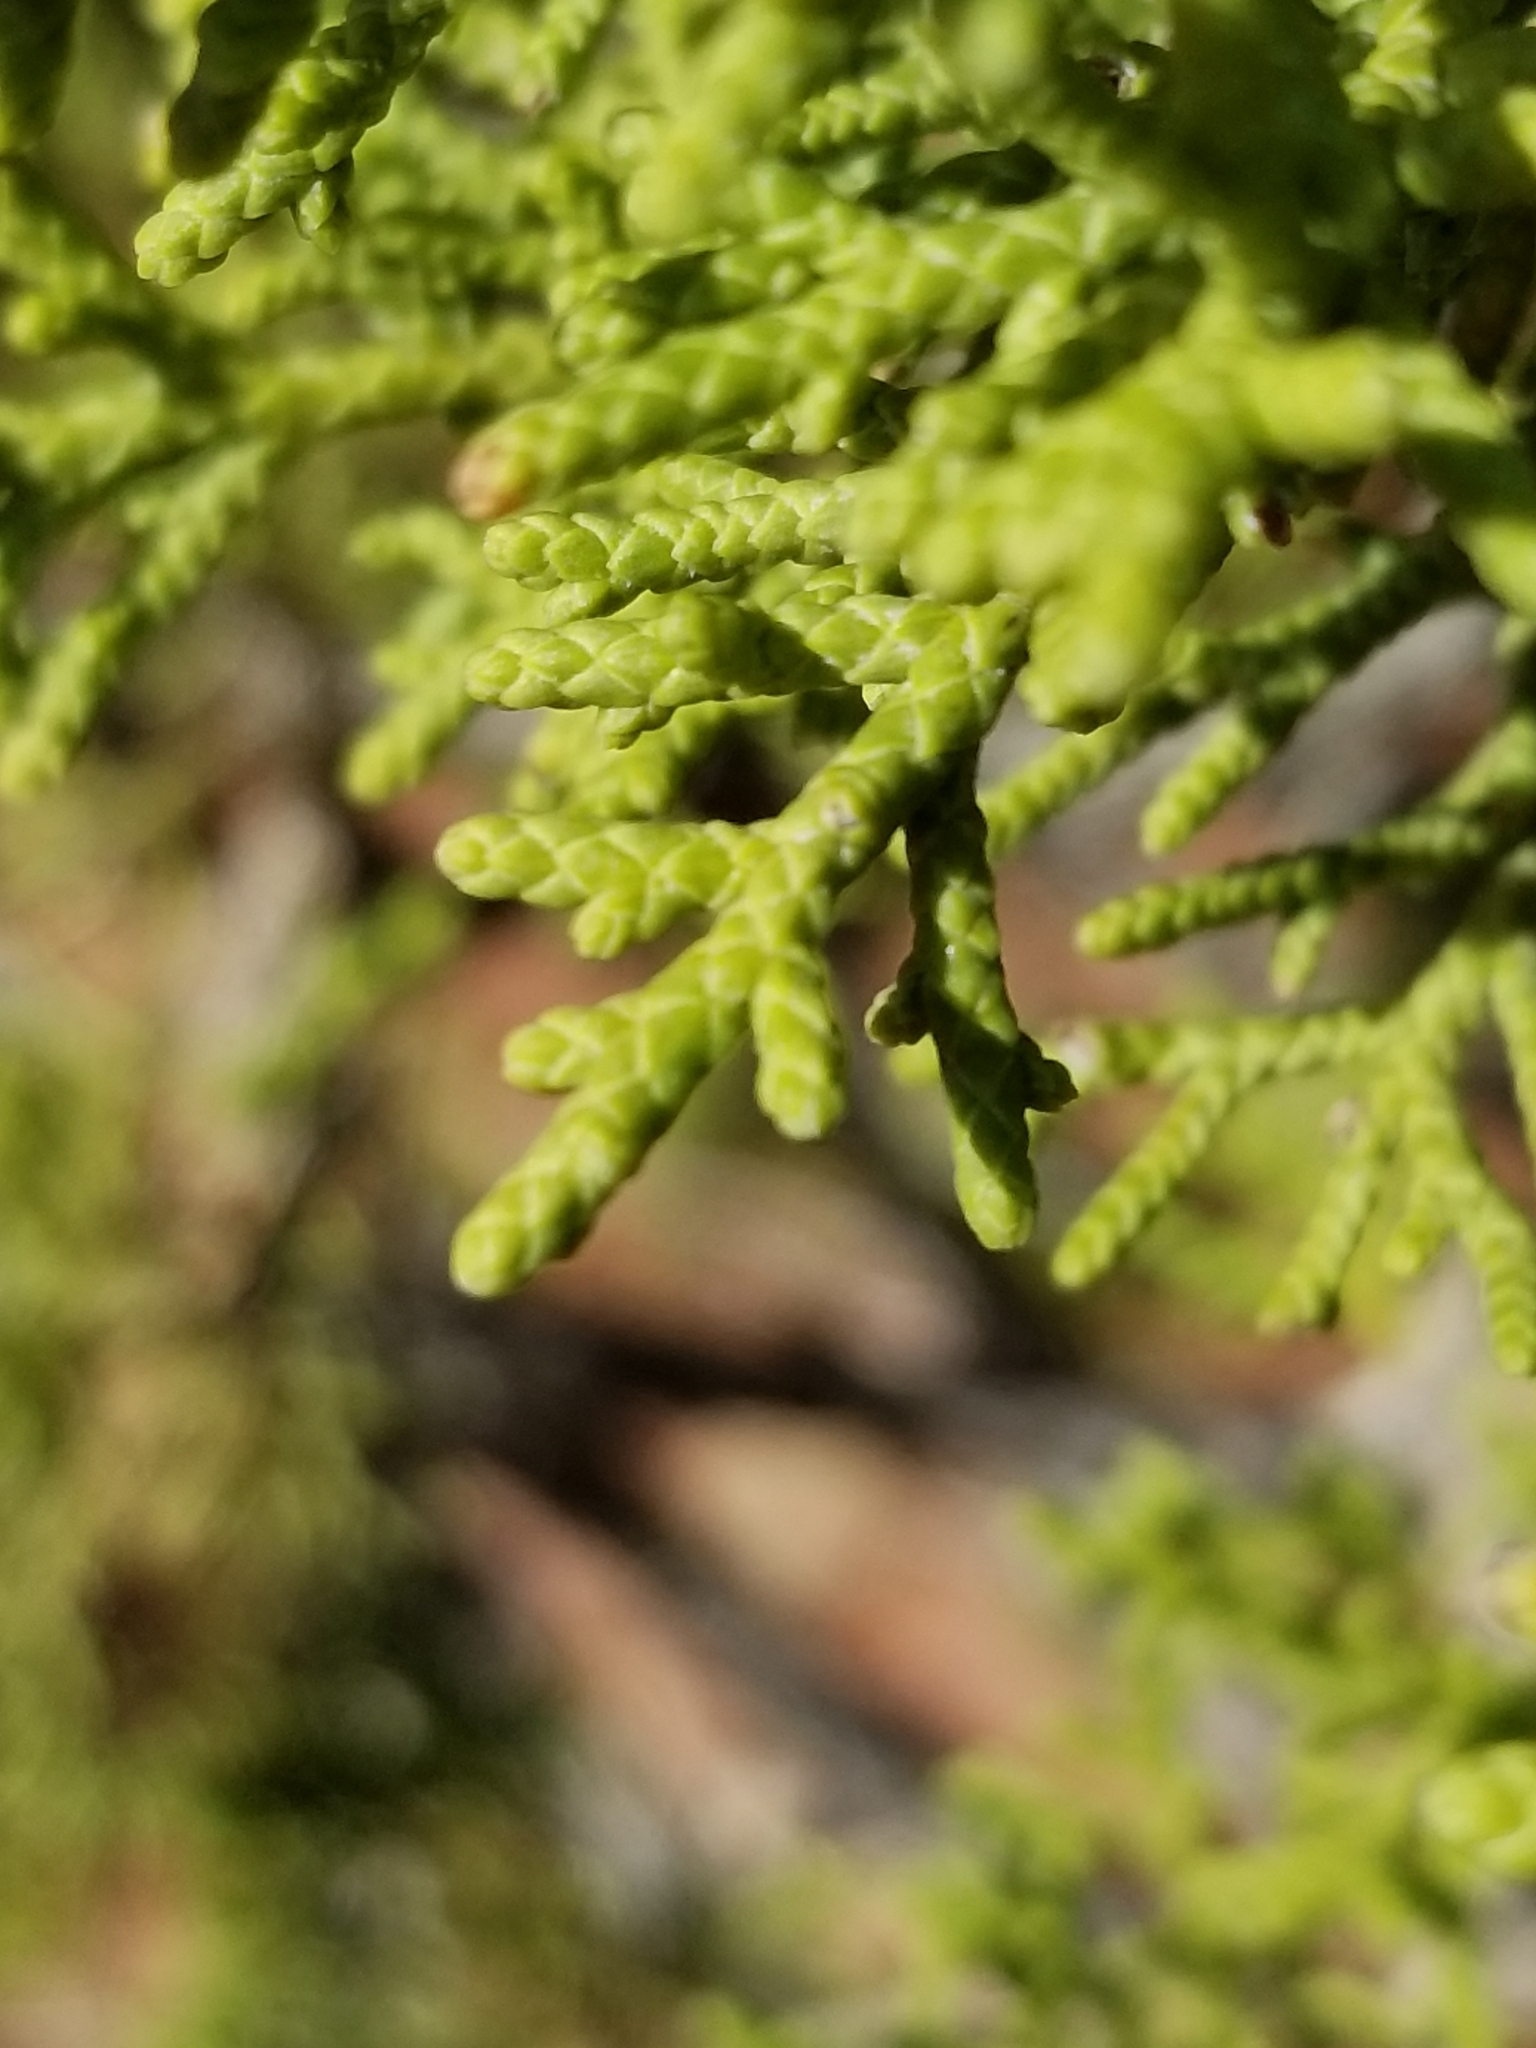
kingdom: Plantae
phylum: Tracheophyta
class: Pinopsida
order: Pinales
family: Cupressaceae
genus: Juniperus
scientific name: Juniperus osteosperma
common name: Utah juniper
